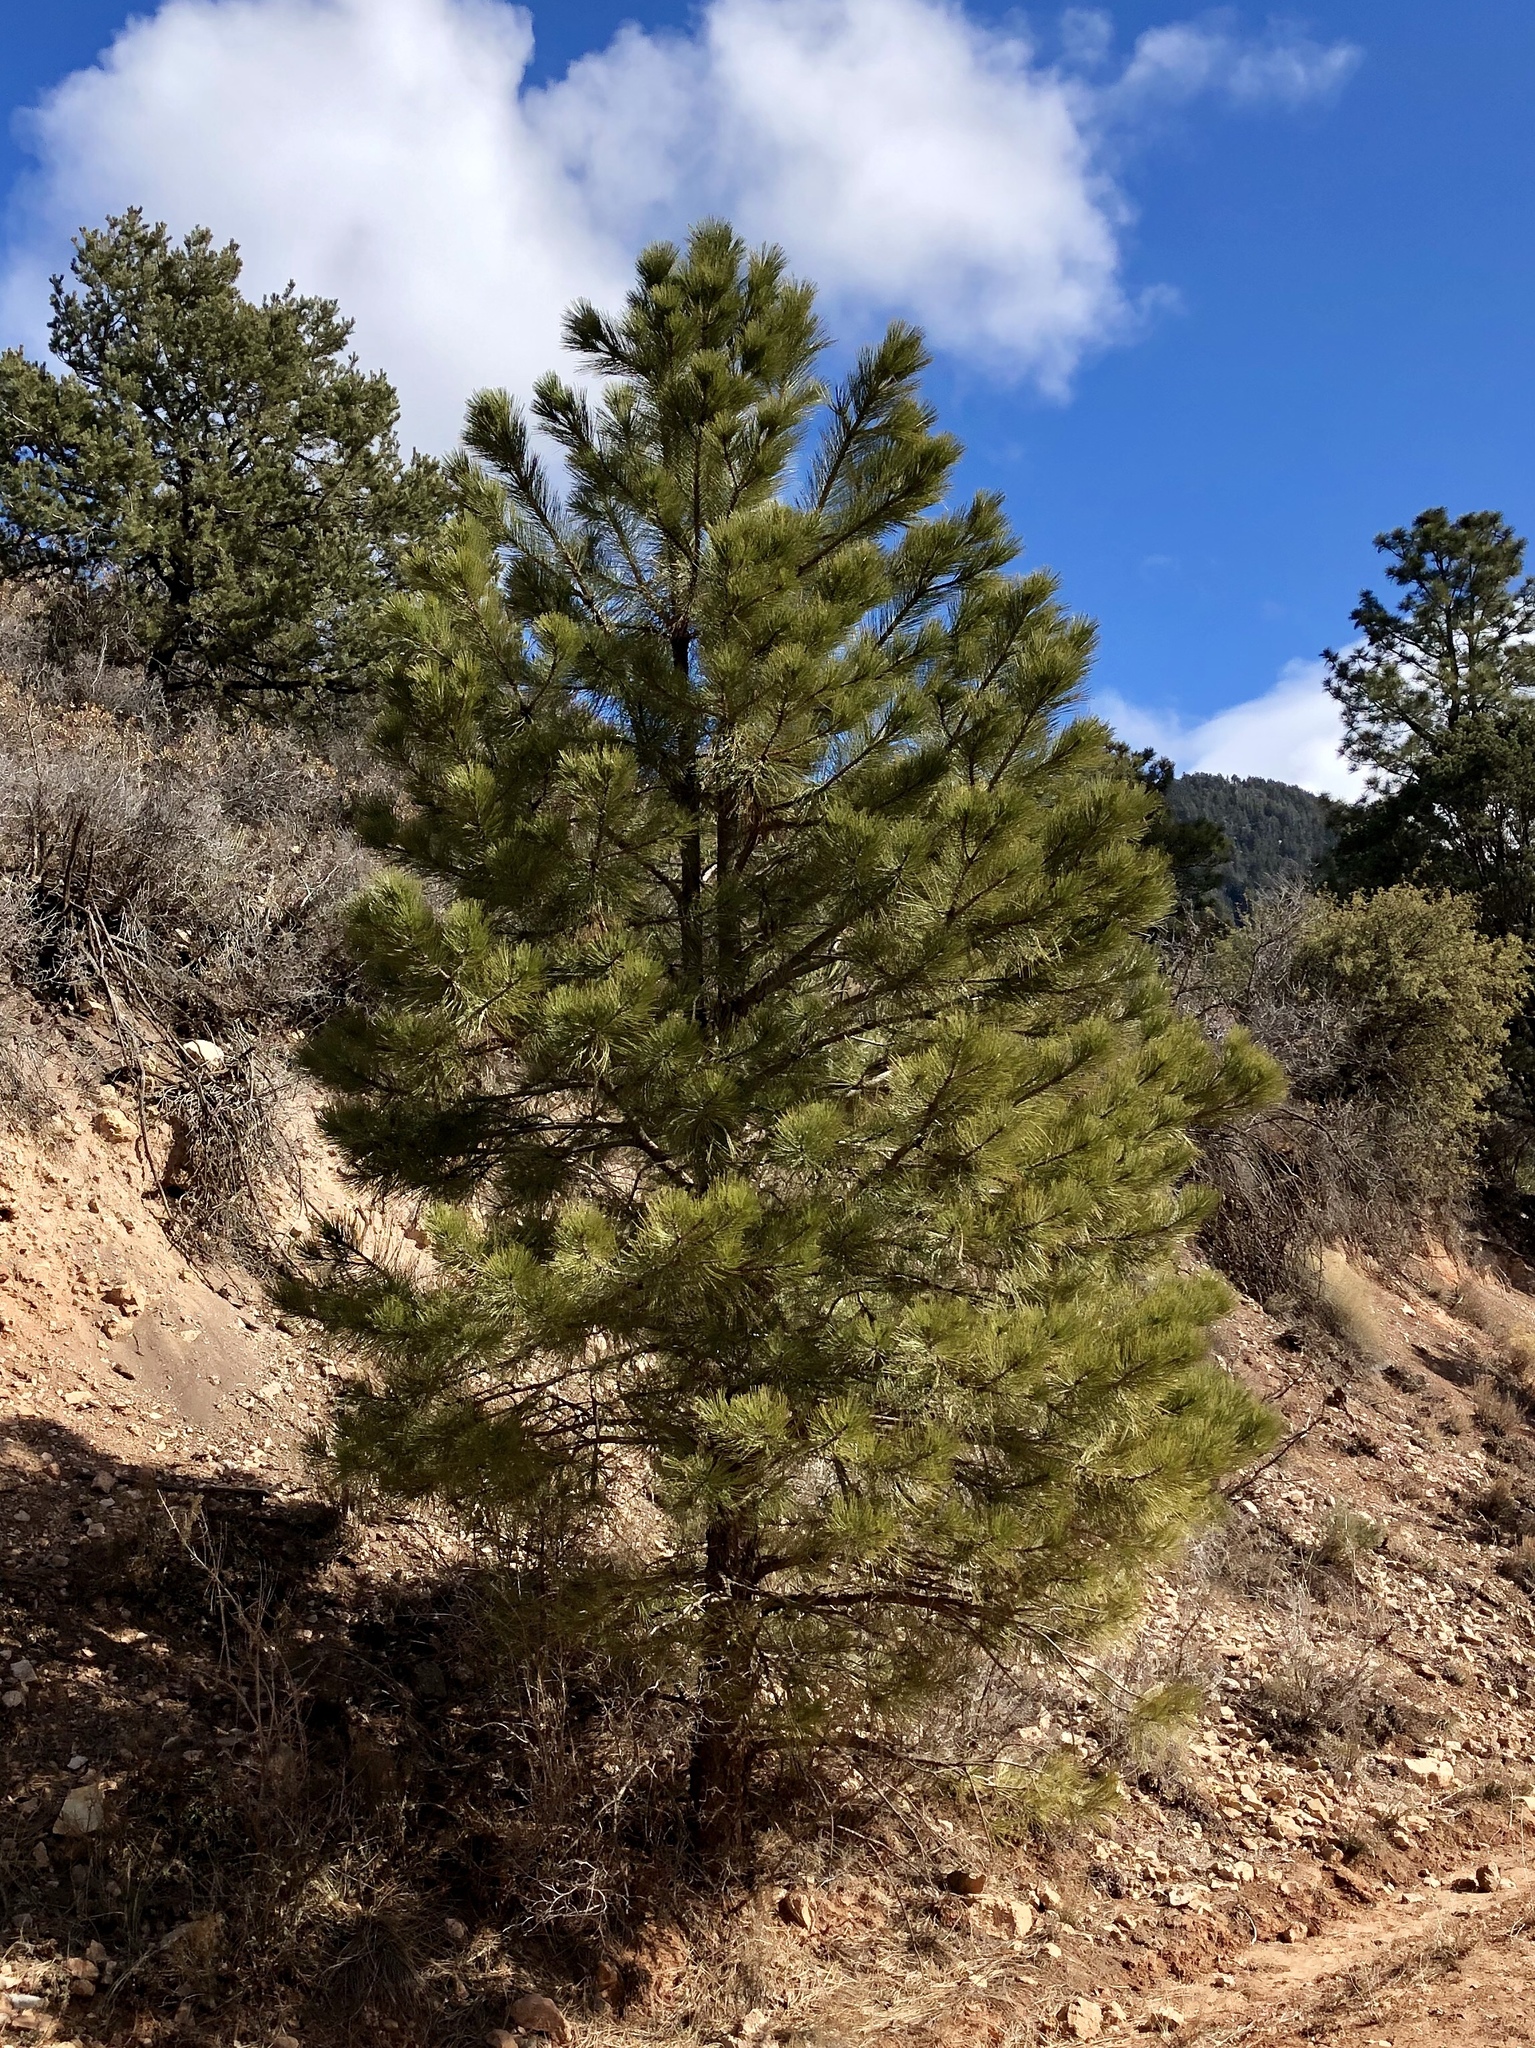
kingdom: Plantae
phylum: Tracheophyta
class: Pinopsida
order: Pinales
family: Pinaceae
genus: Pinus
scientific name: Pinus ponderosa
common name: Western yellow-pine
